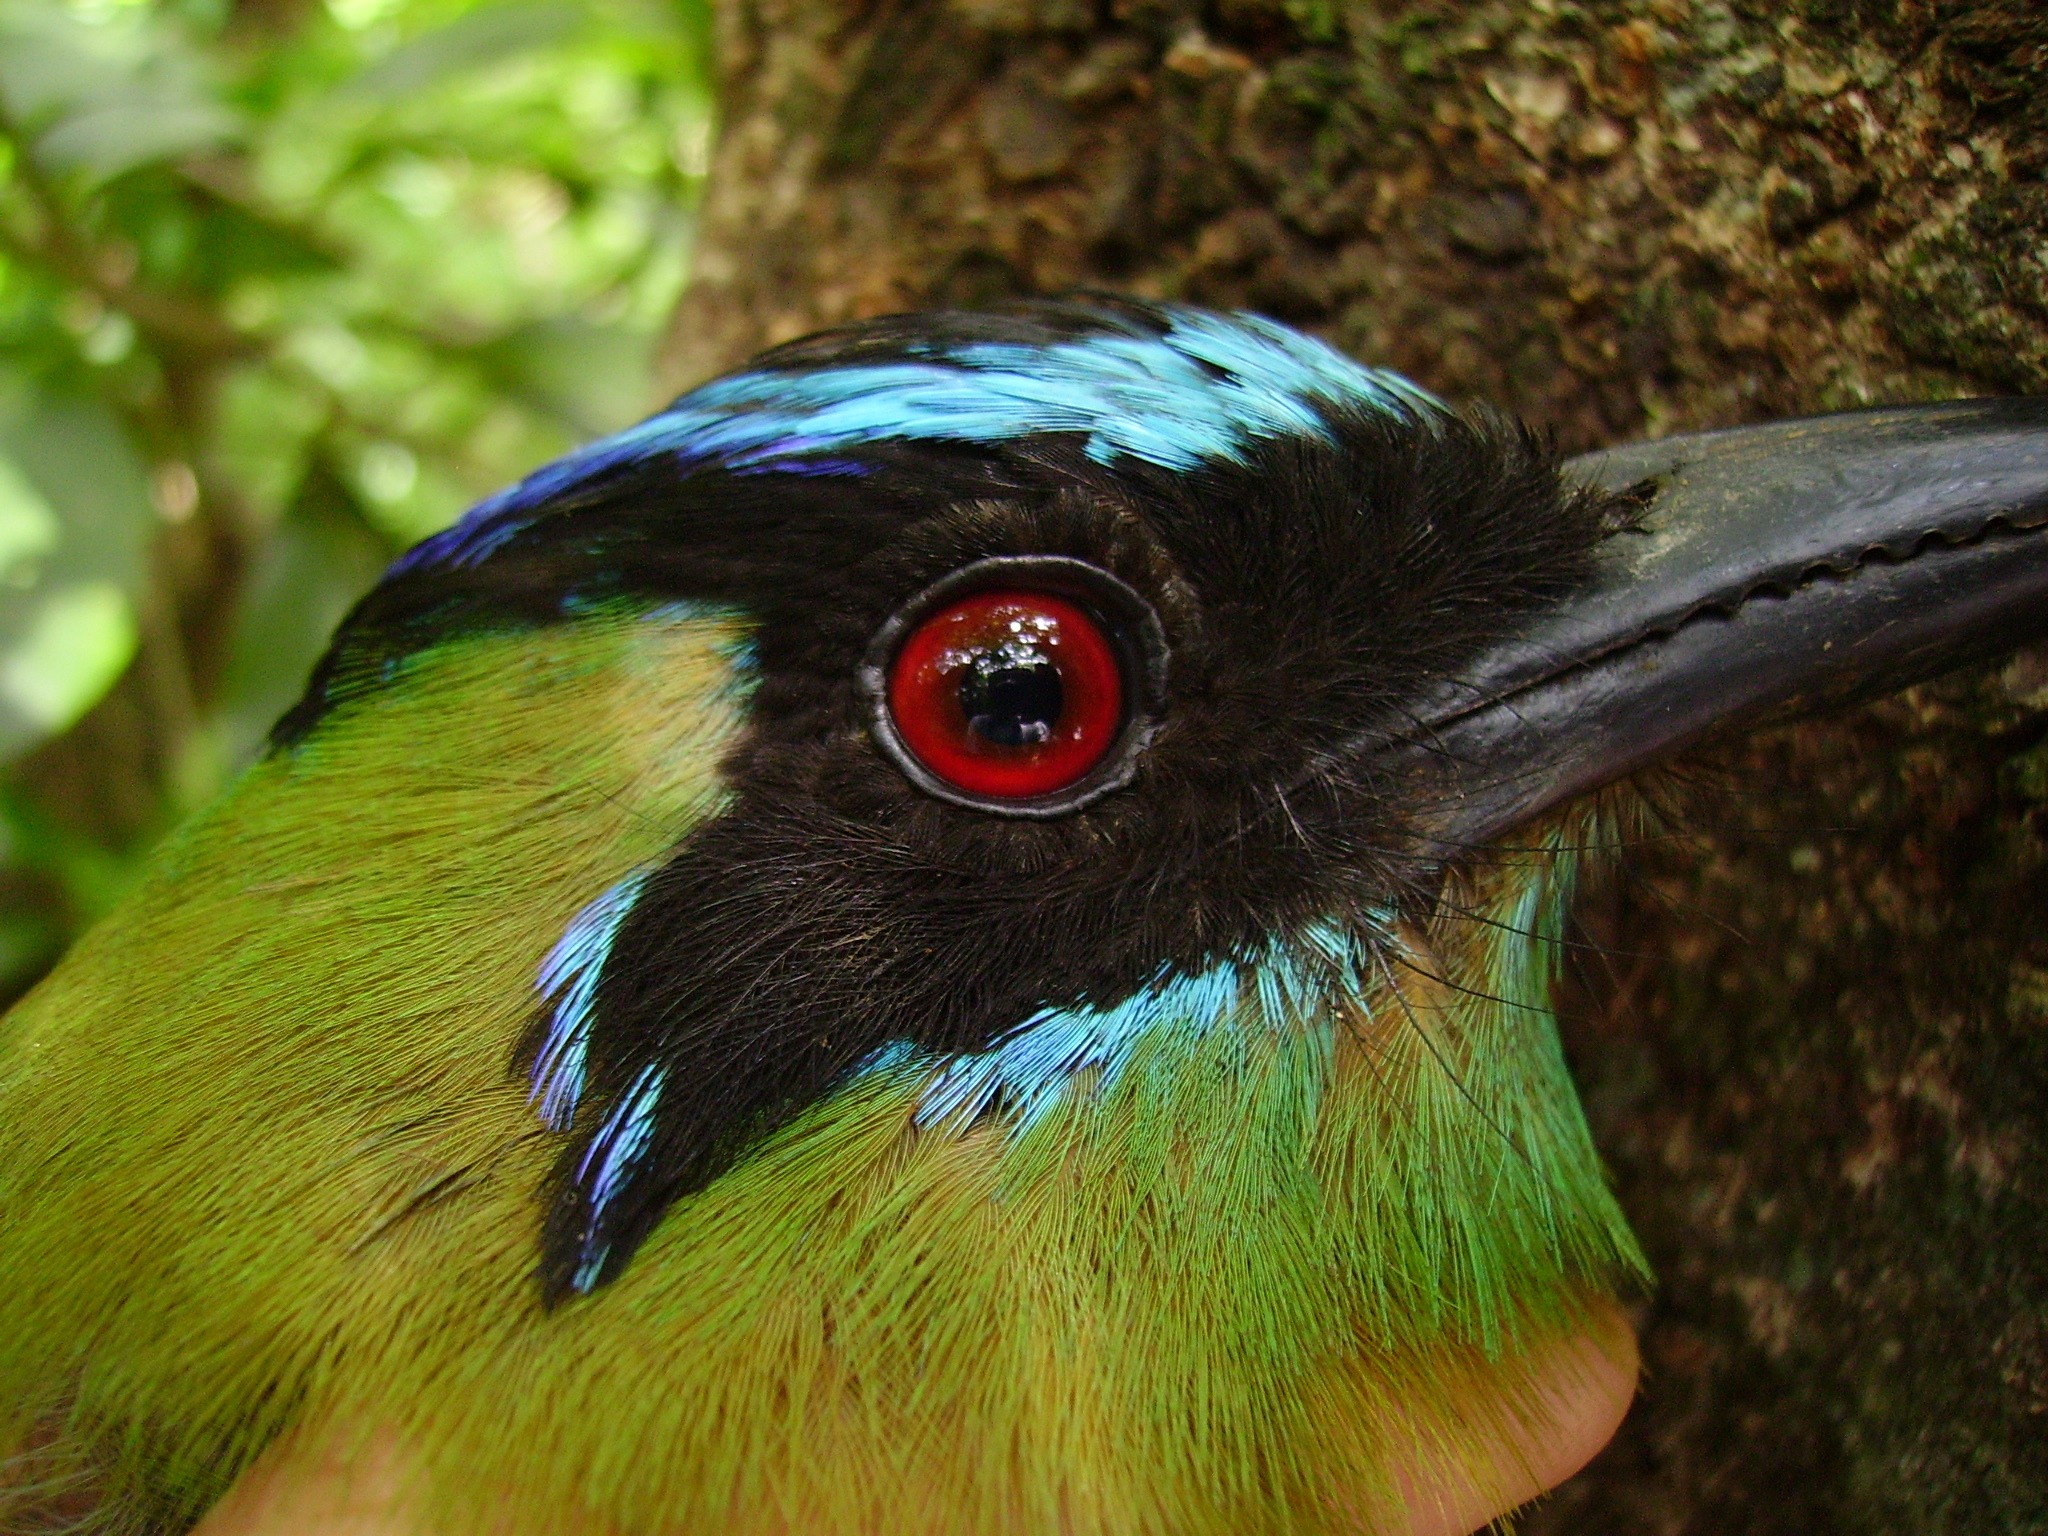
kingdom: Animalia
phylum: Chordata
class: Aves
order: Coraciiformes
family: Momotidae
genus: Momotus
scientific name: Momotus lessonii
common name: Lesson's motmot
